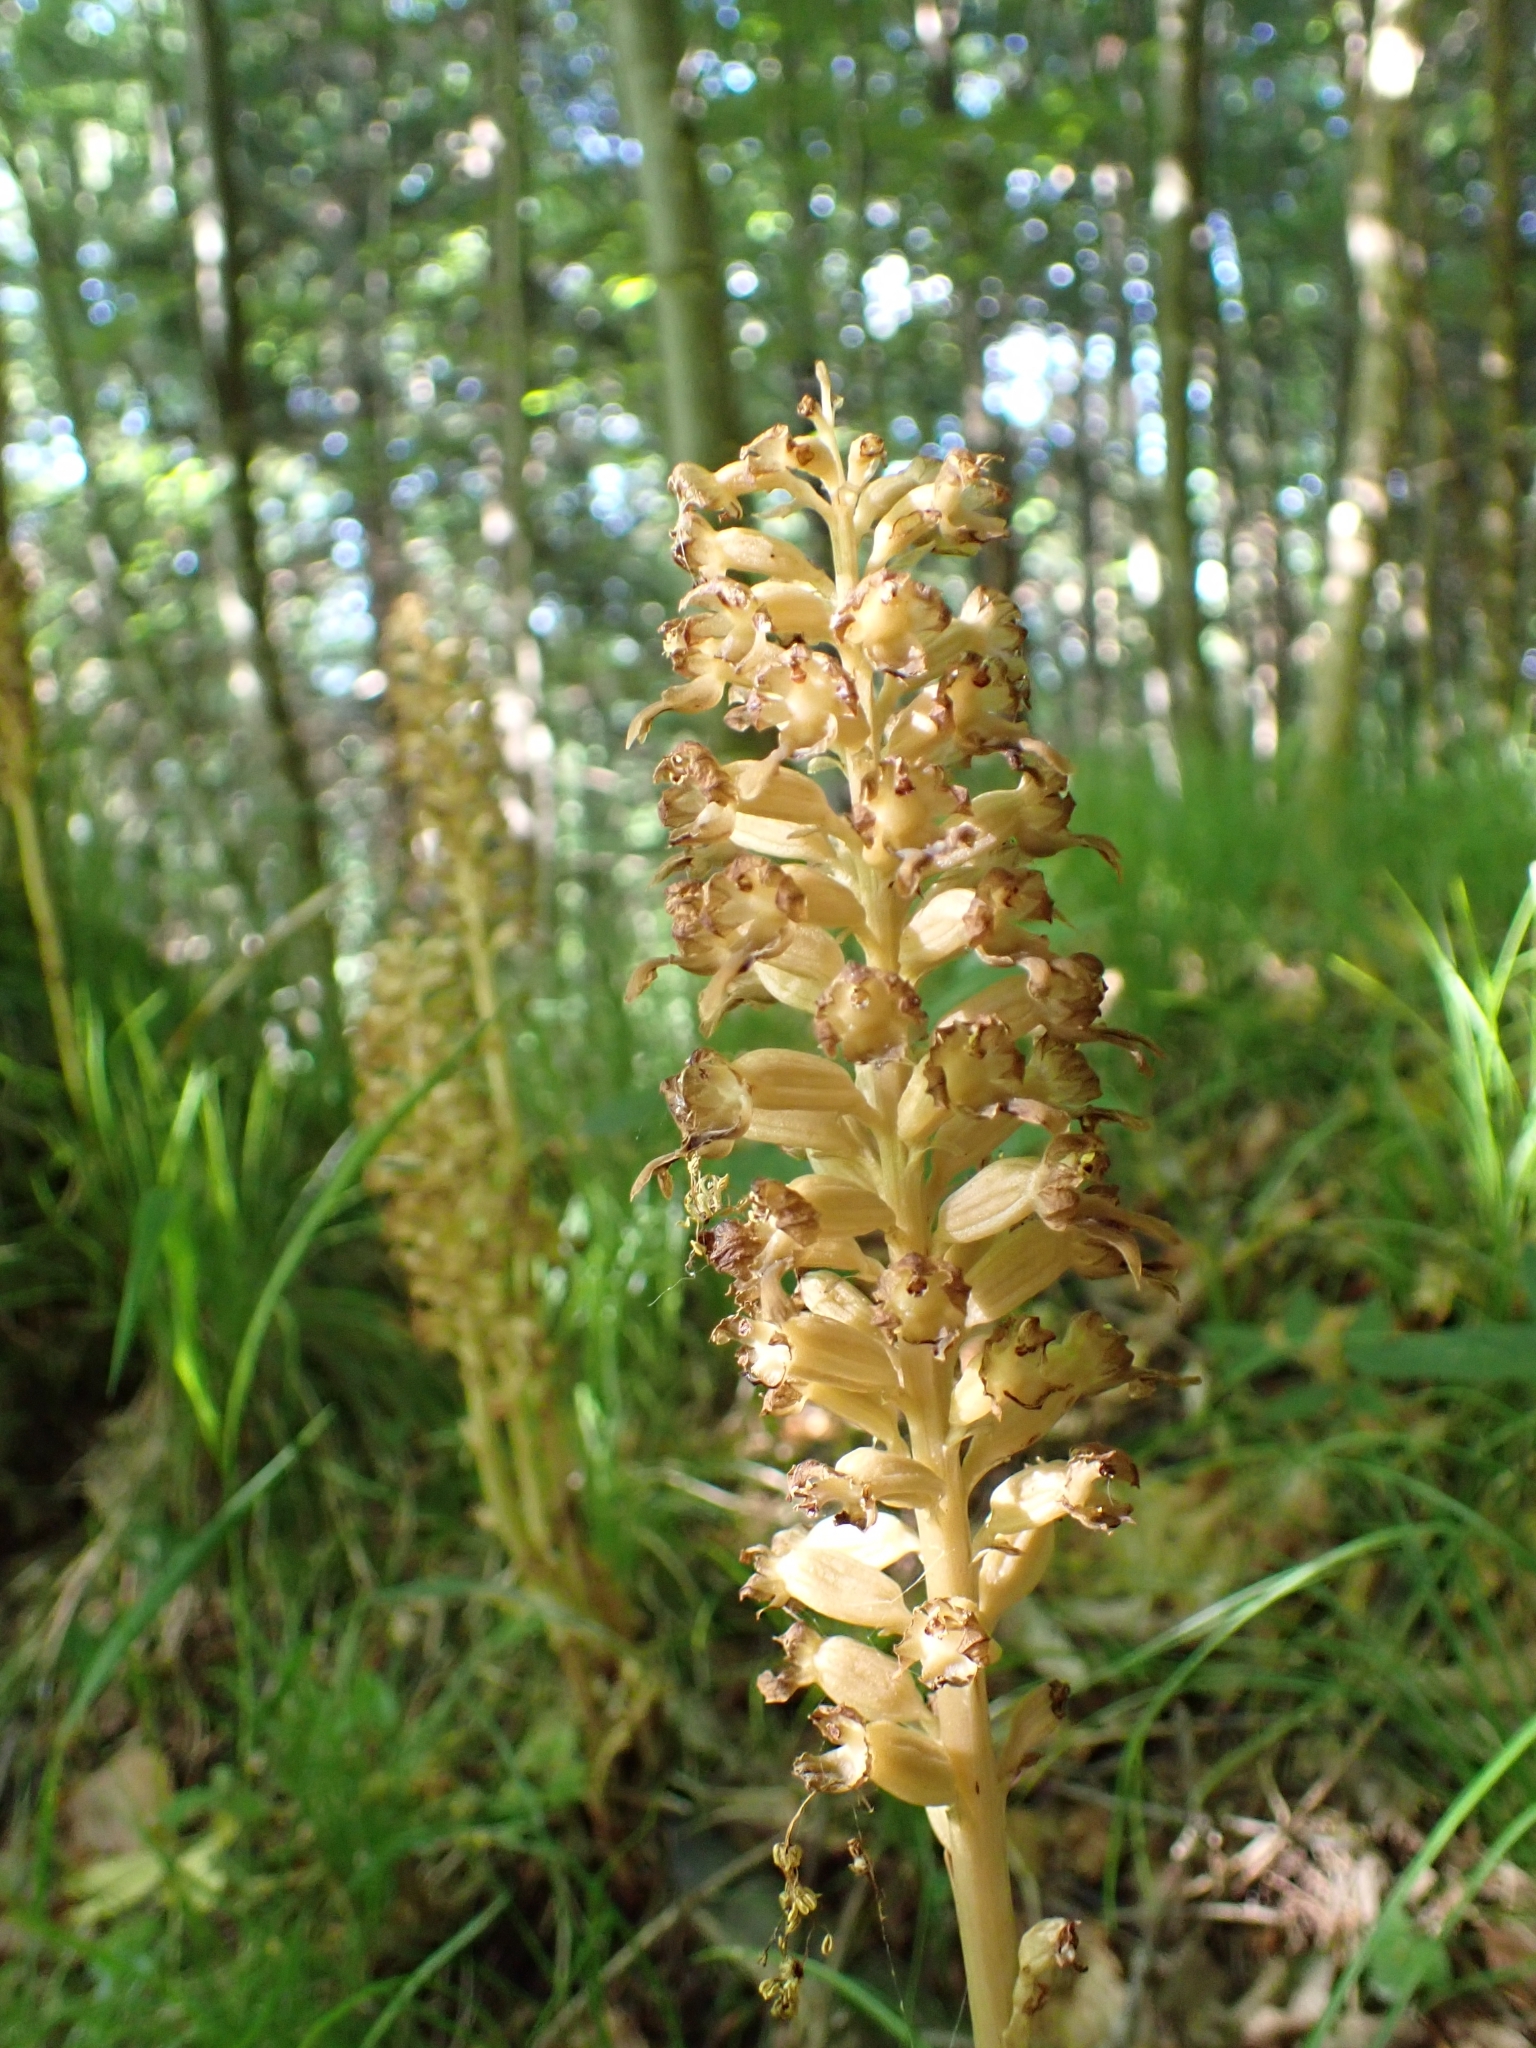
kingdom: Plantae
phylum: Tracheophyta
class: Liliopsida
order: Asparagales
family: Orchidaceae
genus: Neottia
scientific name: Neottia nidus-avis
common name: Bird's-nest orchid
